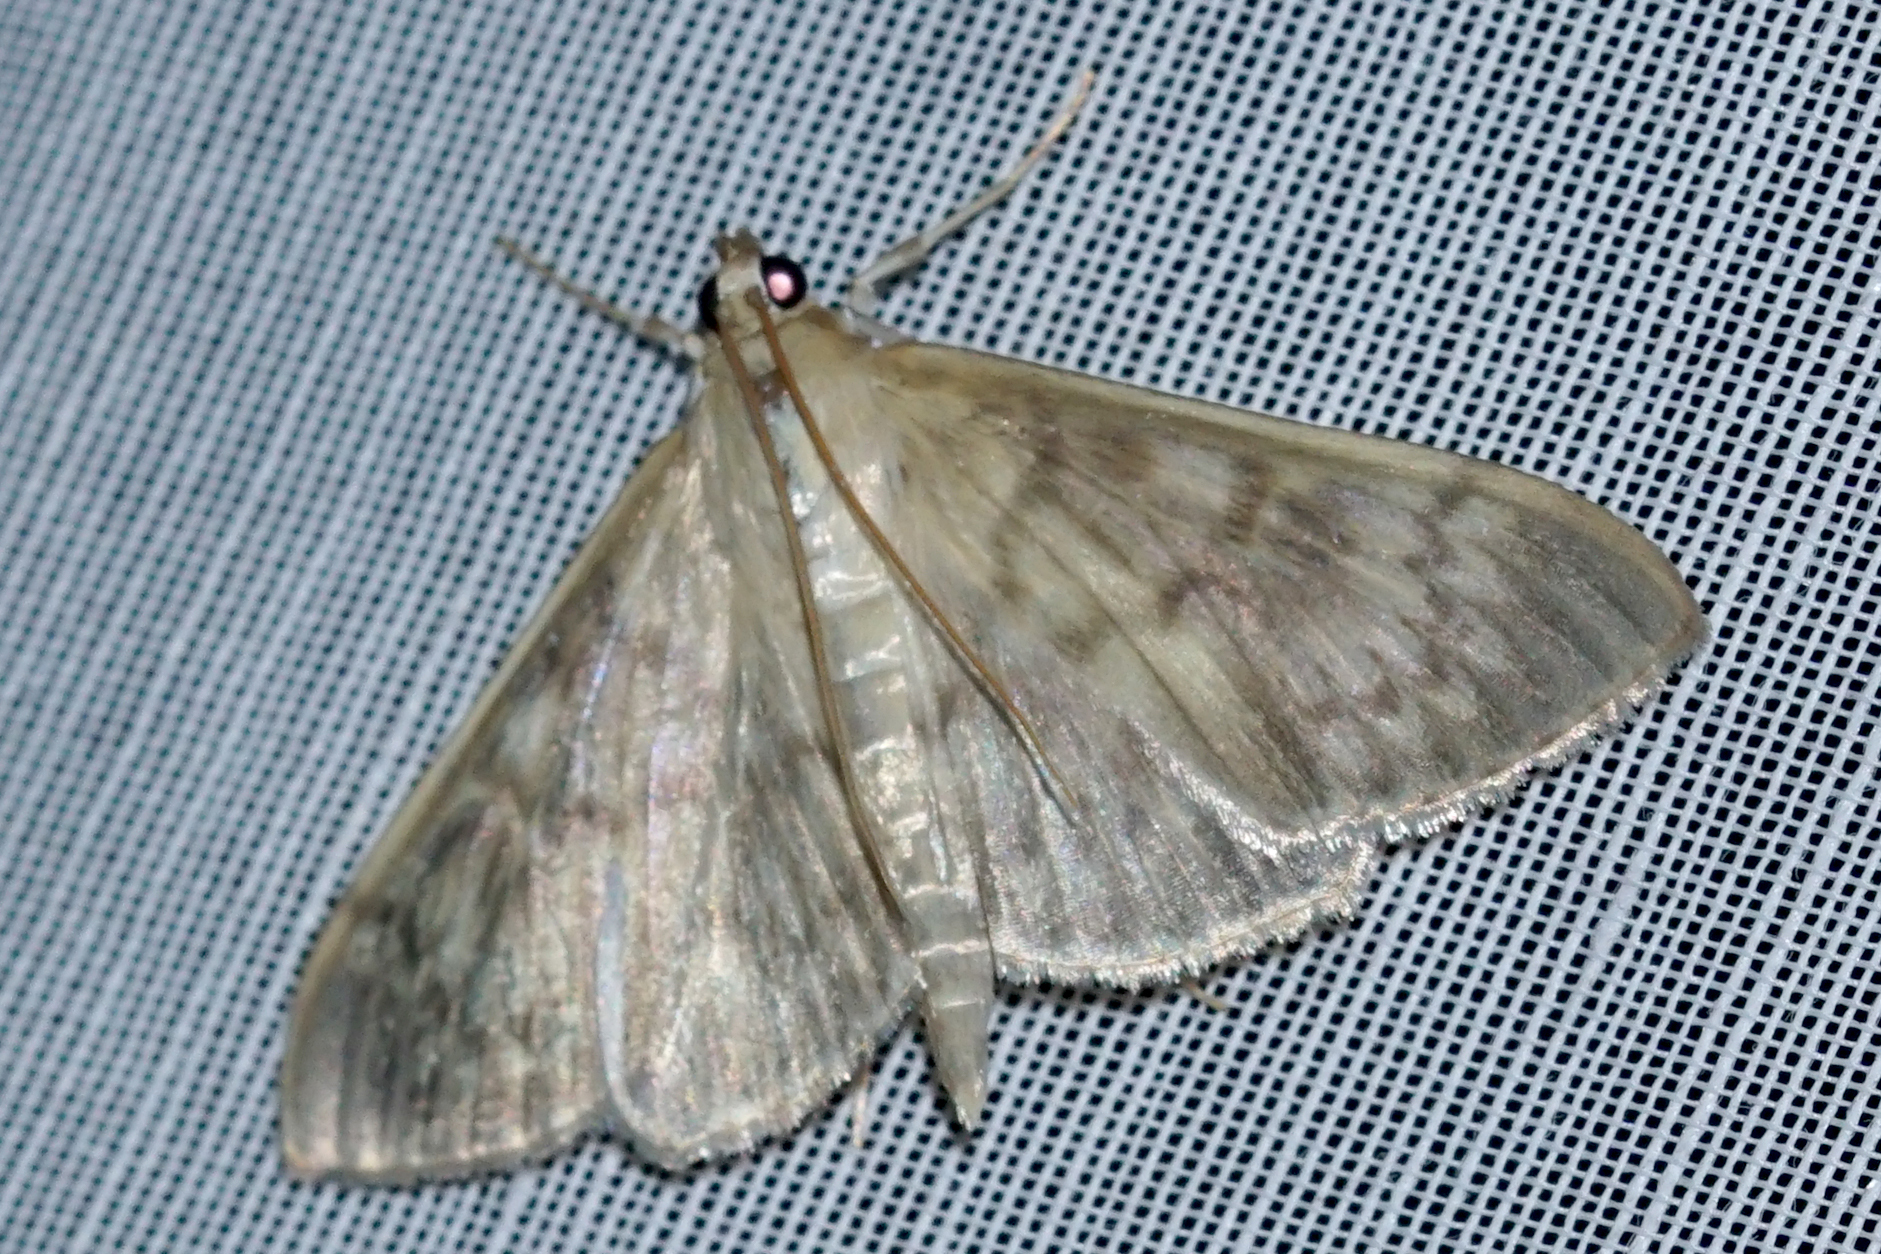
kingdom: Animalia
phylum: Arthropoda
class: Insecta
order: Lepidoptera
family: Crambidae
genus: Patania
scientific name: Patania ruralis
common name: Mother of pearl
